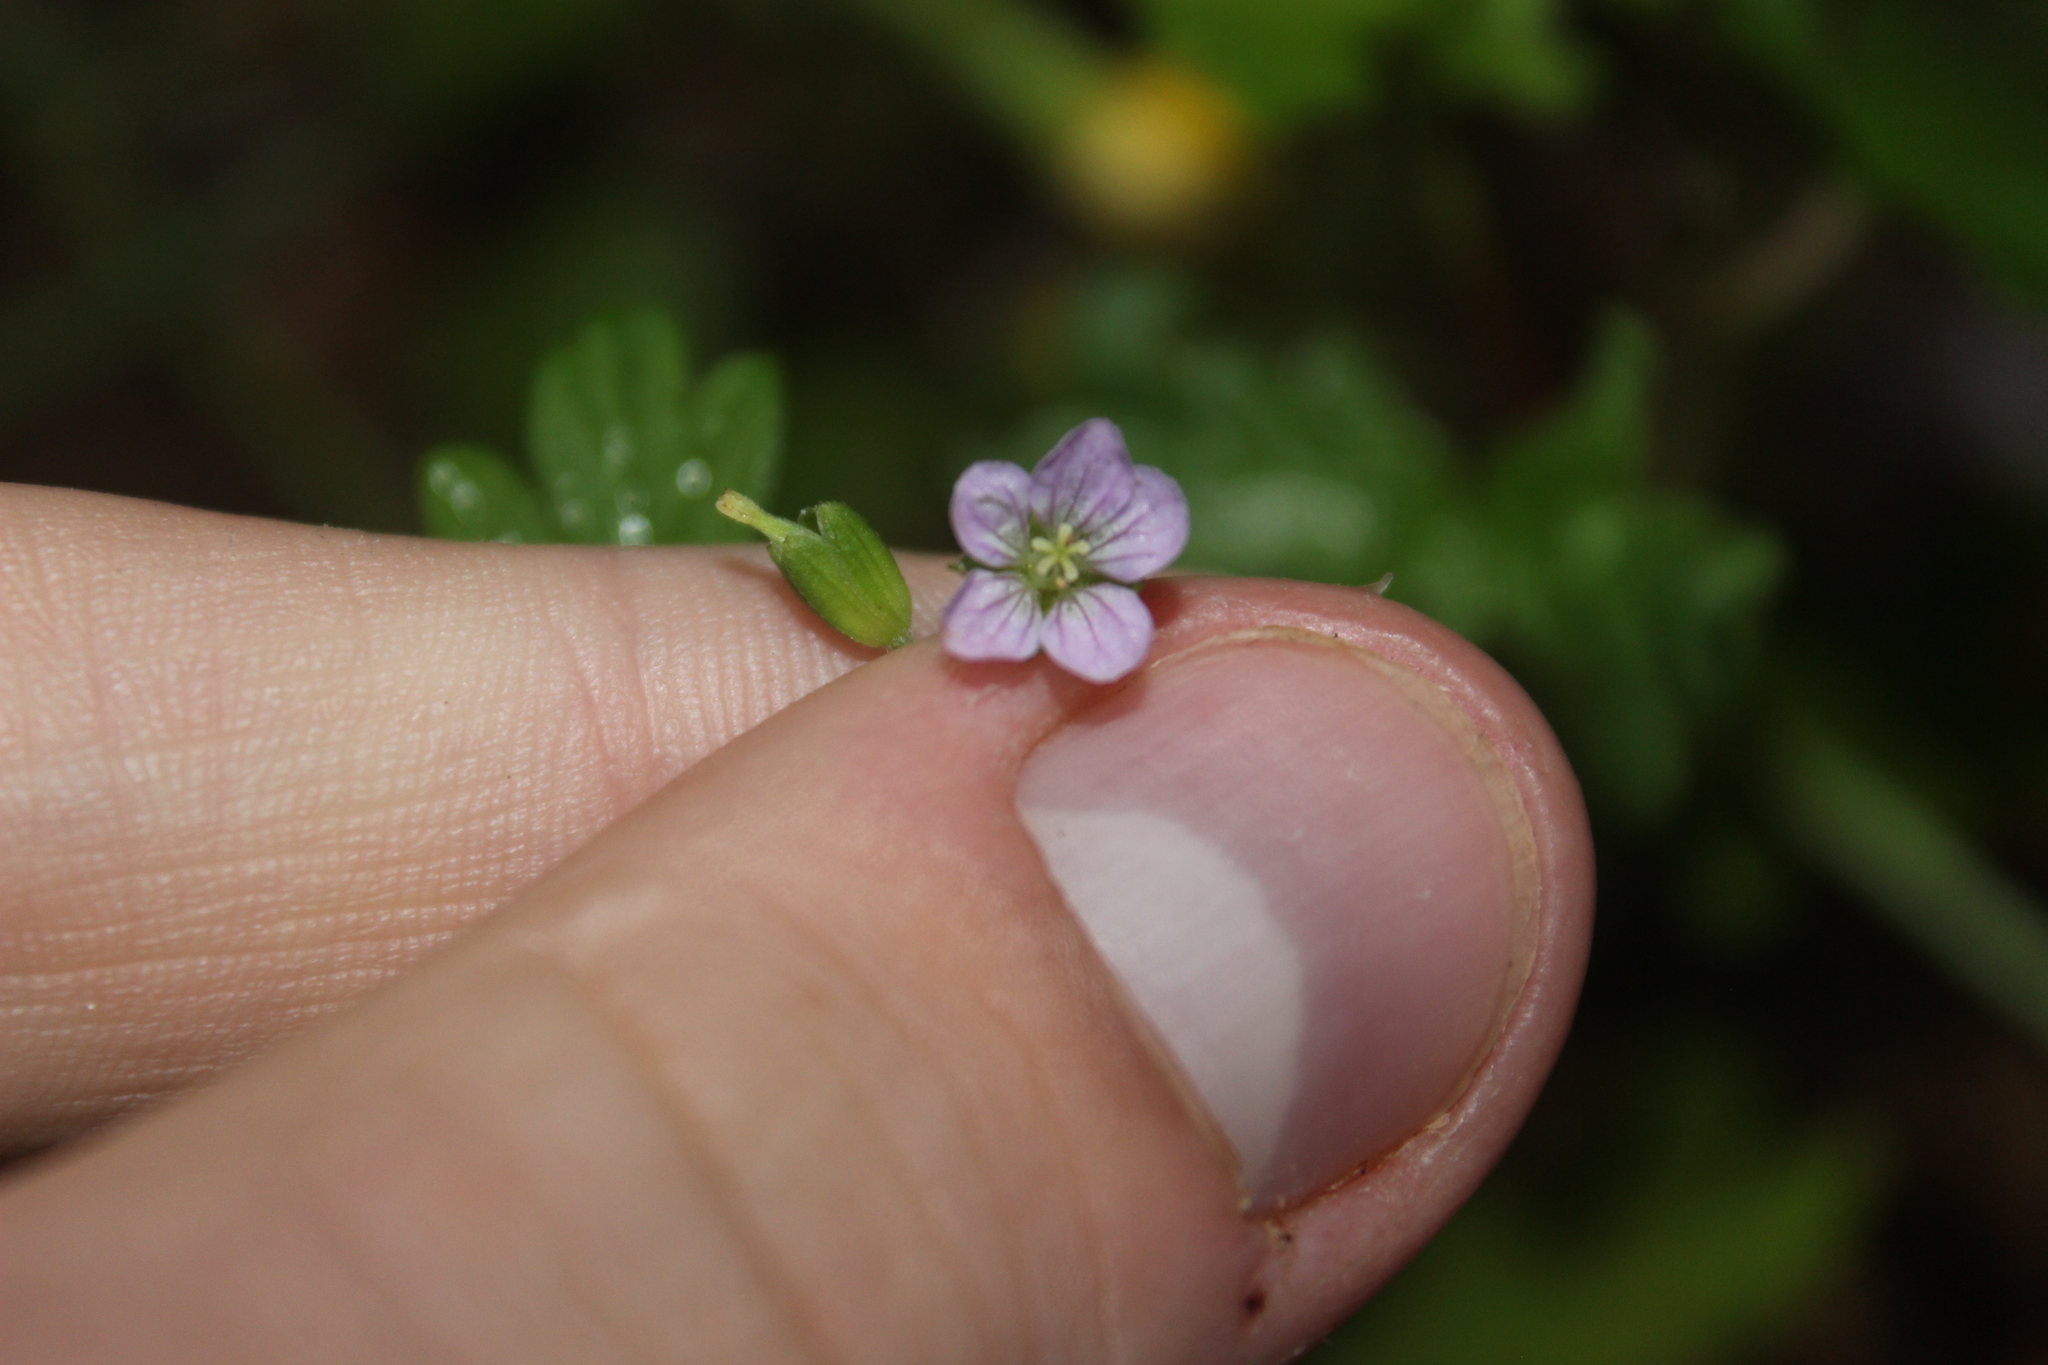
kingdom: Plantae
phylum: Tracheophyta
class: Magnoliopsida
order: Geraniales
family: Geraniaceae
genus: Geranium
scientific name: Geranium homeanum
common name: Australasian geranium
